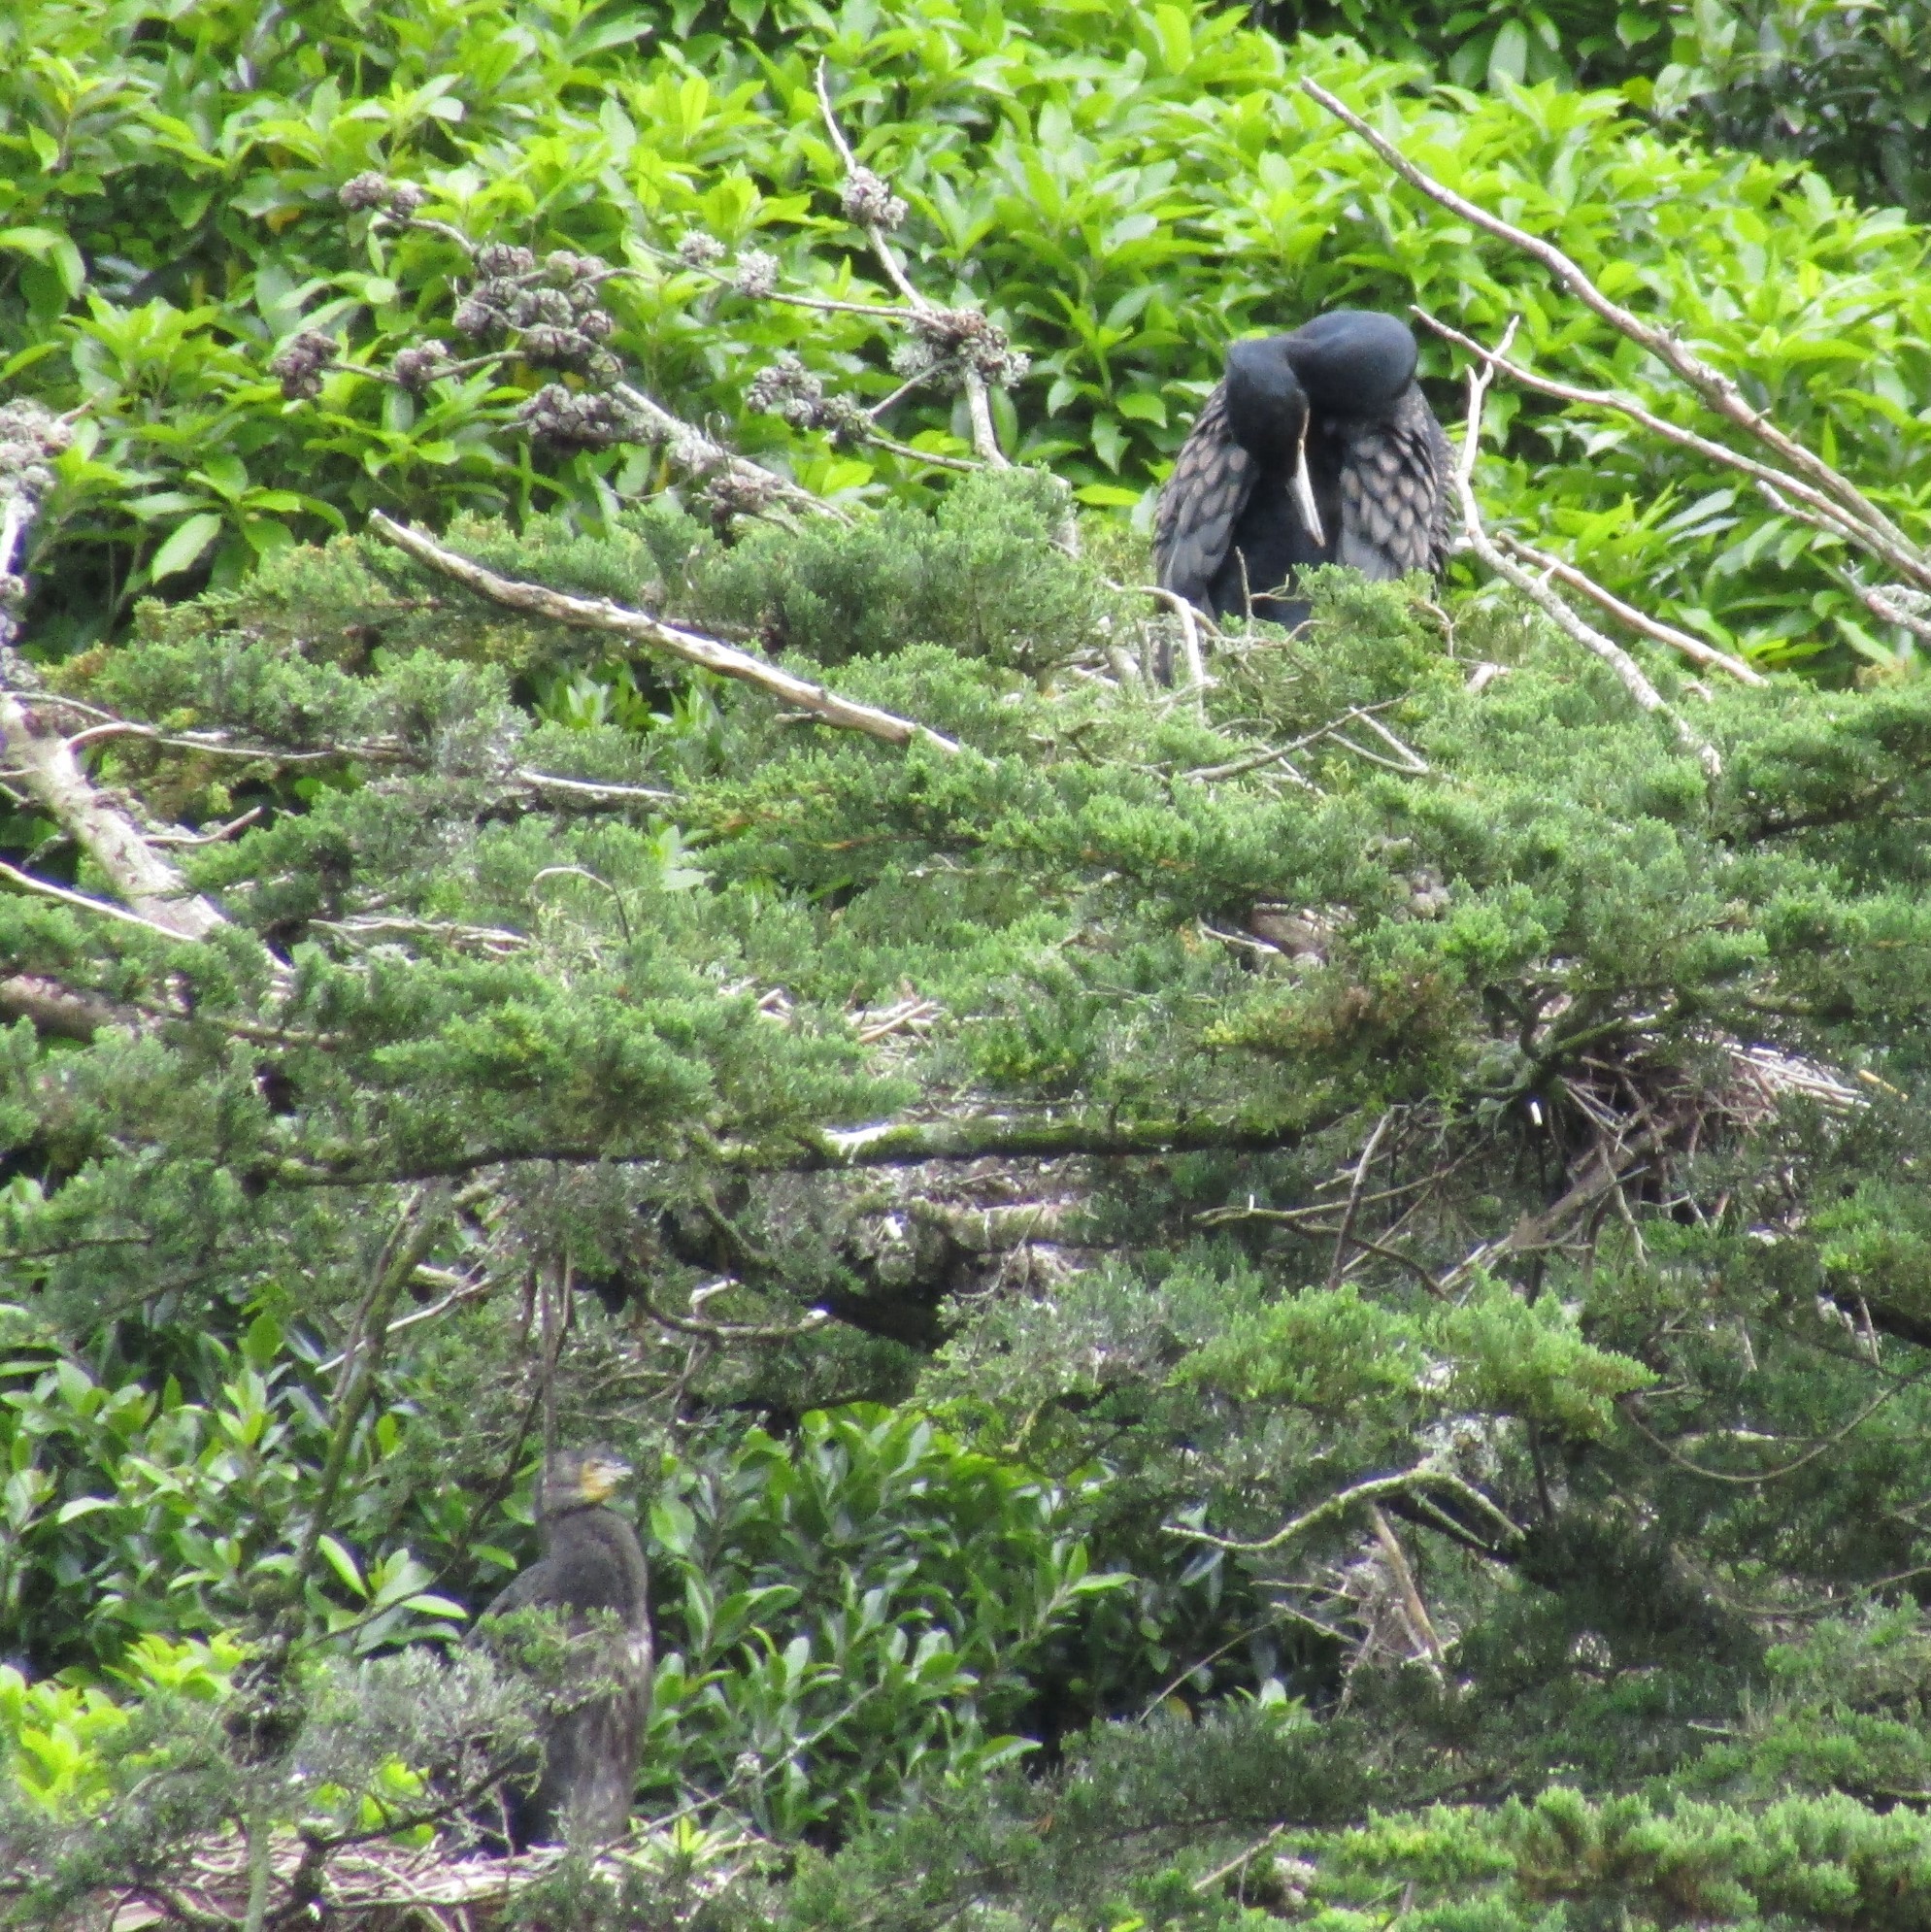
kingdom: Animalia
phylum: Chordata
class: Aves
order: Suliformes
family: Phalacrocoracidae
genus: Phalacrocorax
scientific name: Phalacrocorax carbo
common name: Great cormorant
